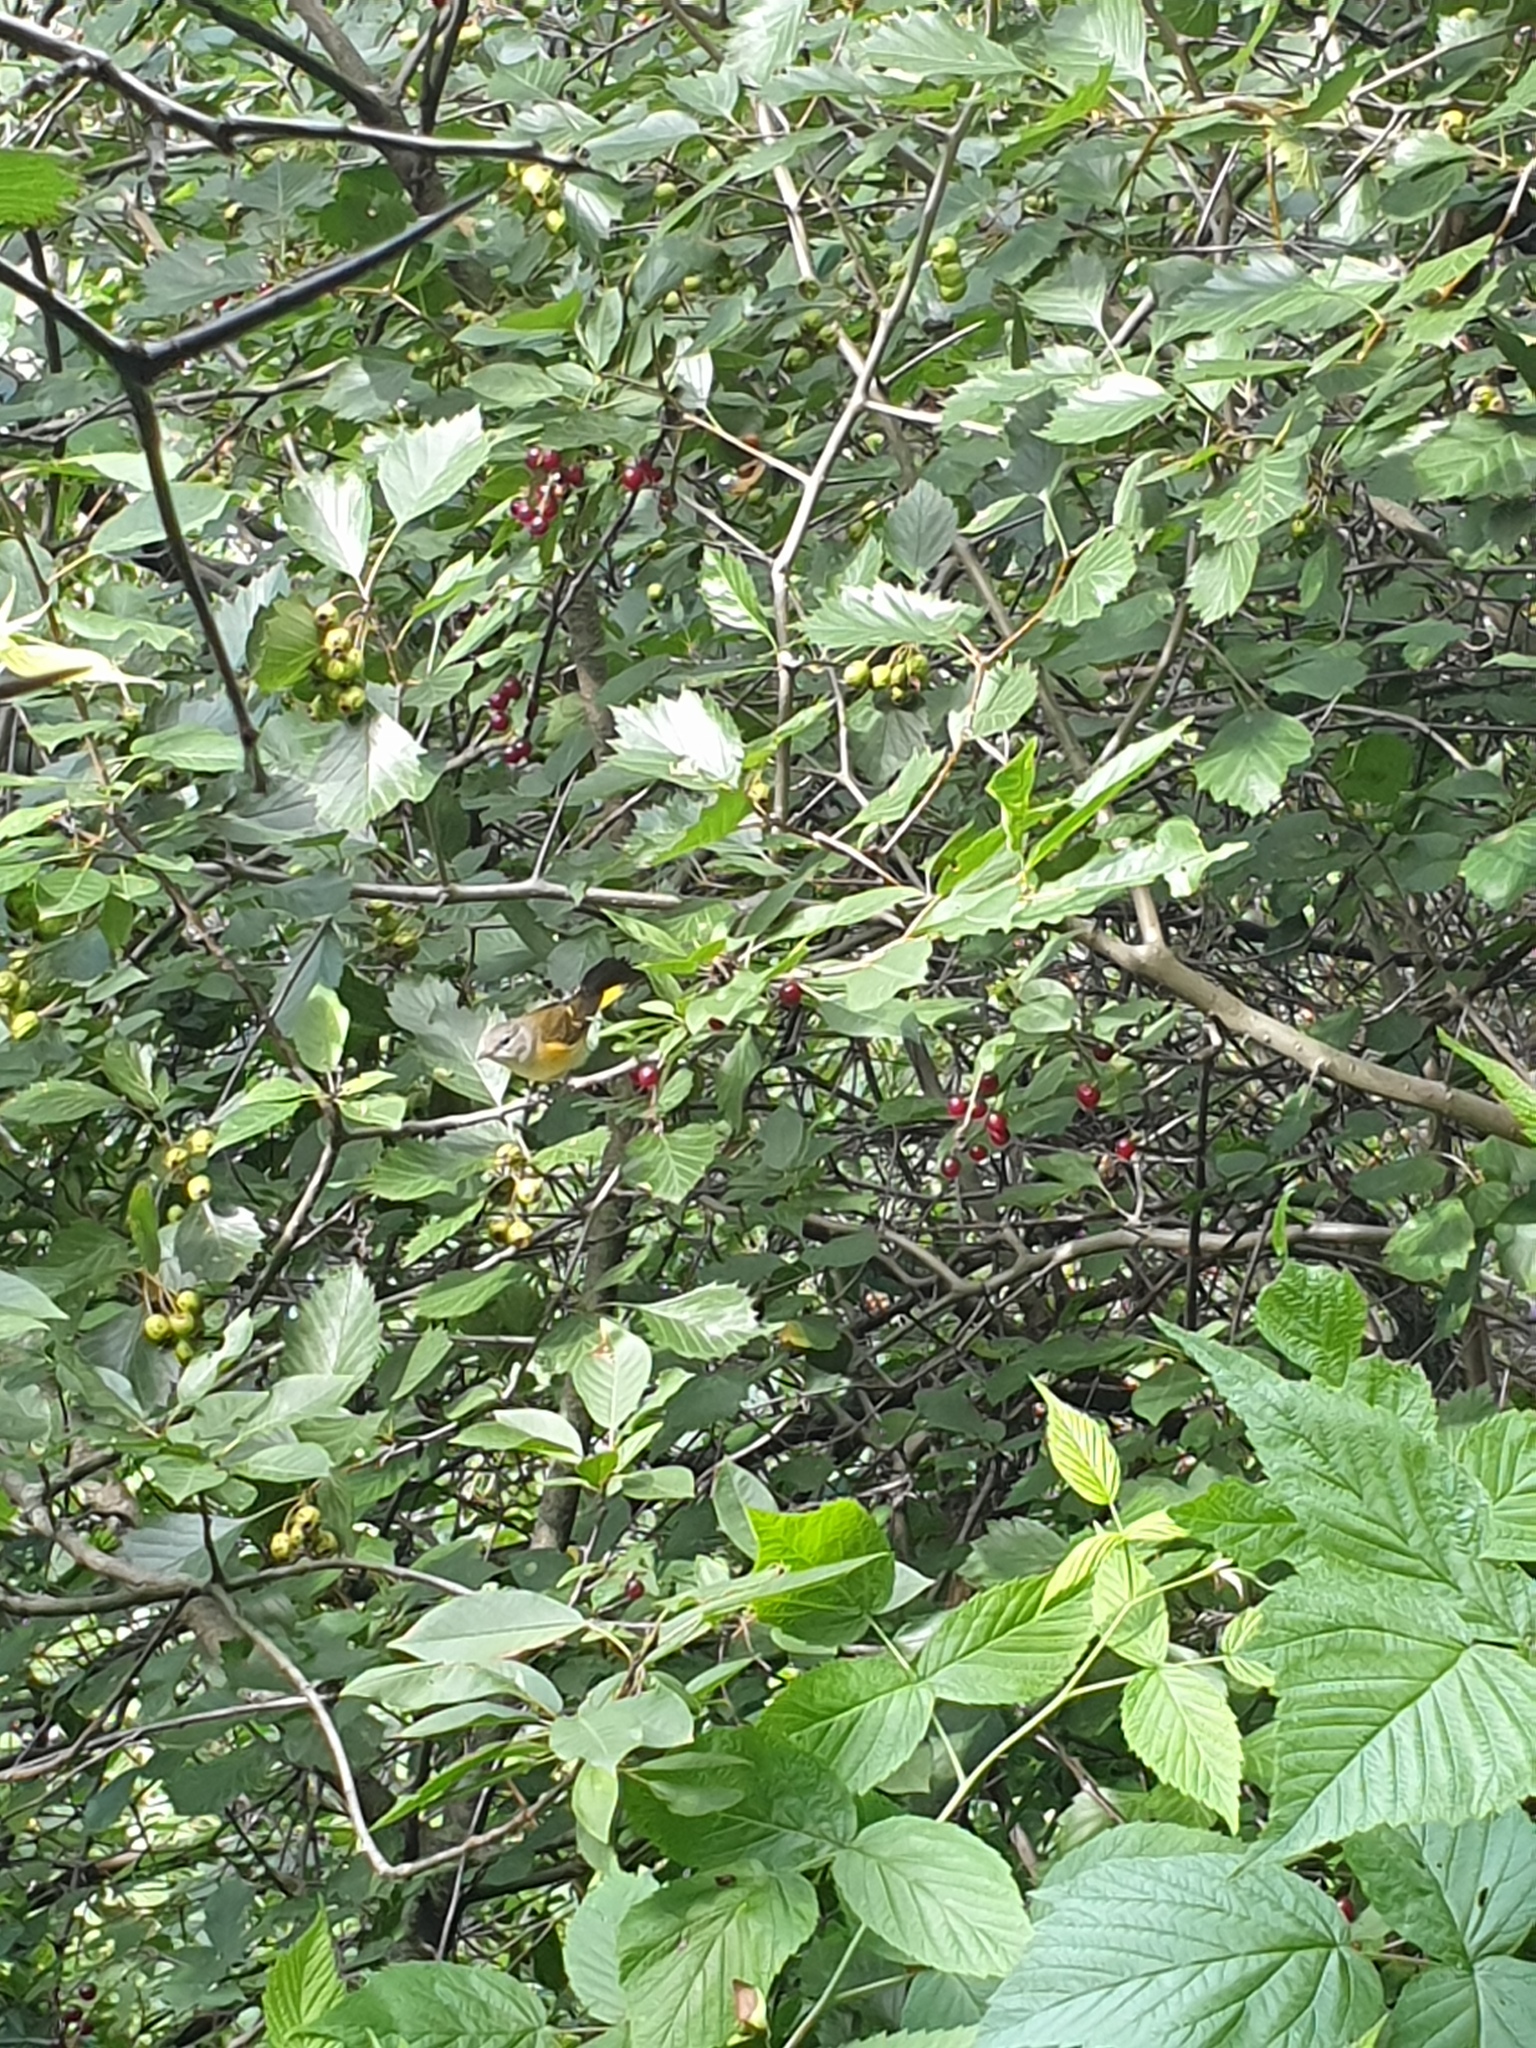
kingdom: Animalia
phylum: Chordata
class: Aves
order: Passeriformes
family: Parulidae
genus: Setophaga
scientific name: Setophaga ruticilla
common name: American redstart
